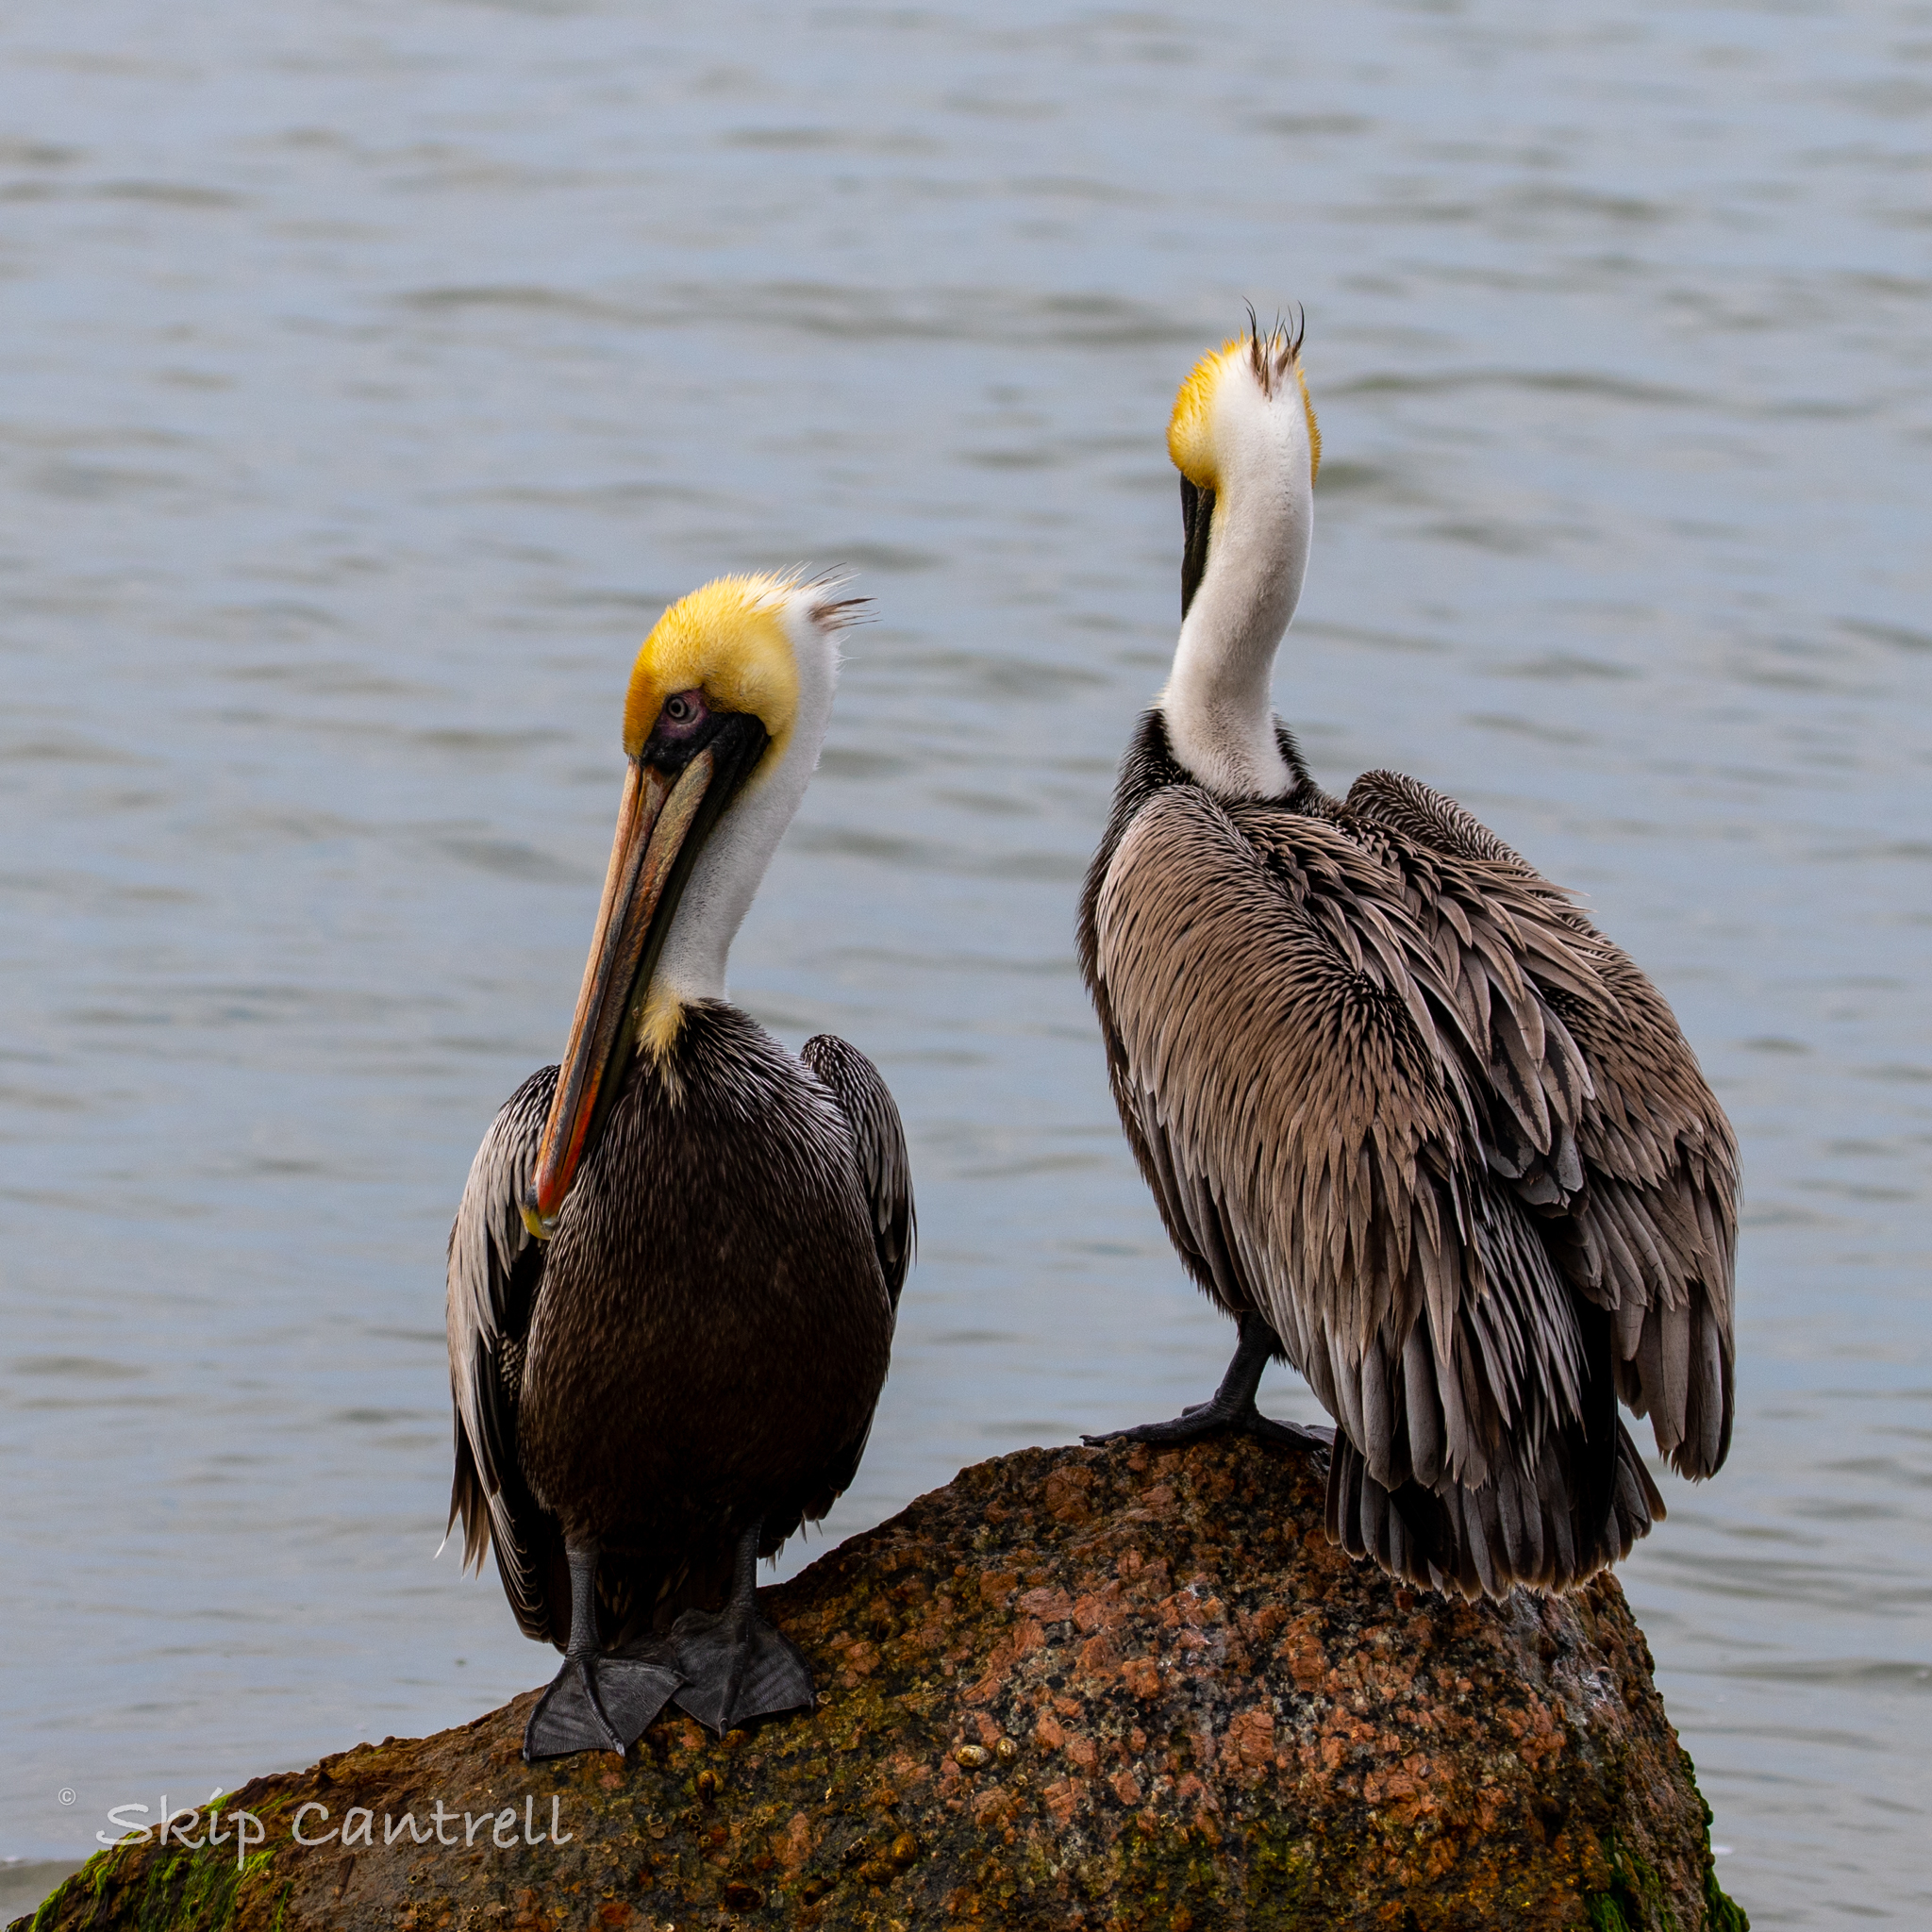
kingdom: Animalia
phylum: Chordata
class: Aves
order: Pelecaniformes
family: Pelecanidae
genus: Pelecanus
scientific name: Pelecanus occidentalis
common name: Brown pelican
